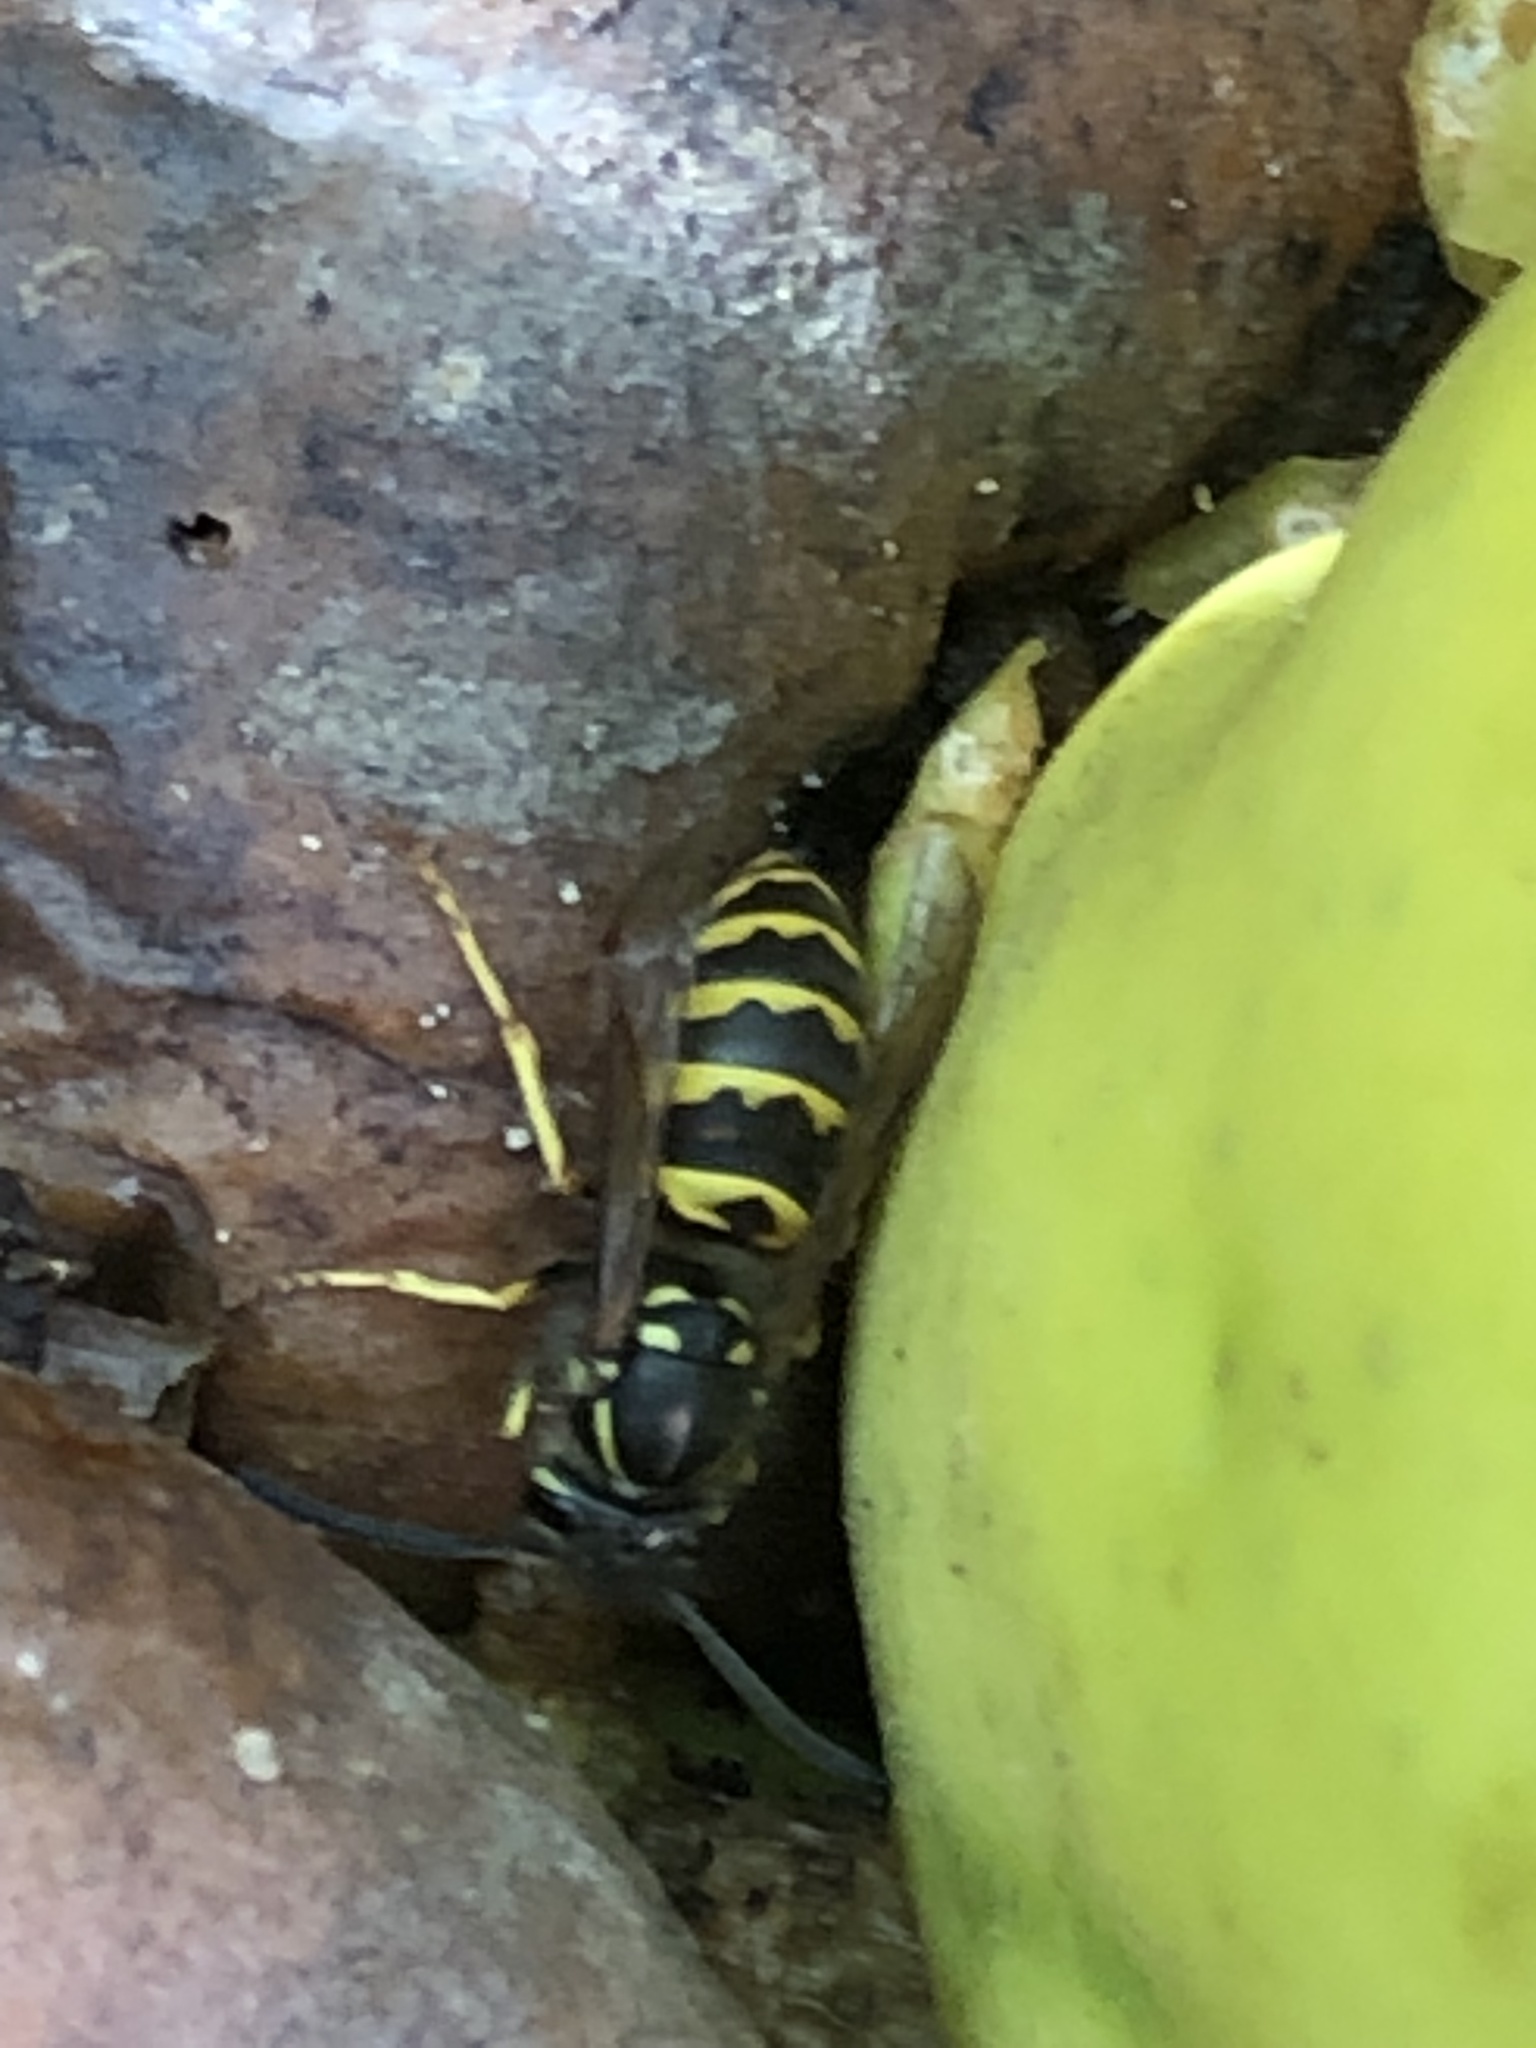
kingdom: Animalia
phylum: Arthropoda
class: Insecta
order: Hymenoptera
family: Vespidae
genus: Vespula
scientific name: Vespula alascensis
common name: Alaska yellowjacket
